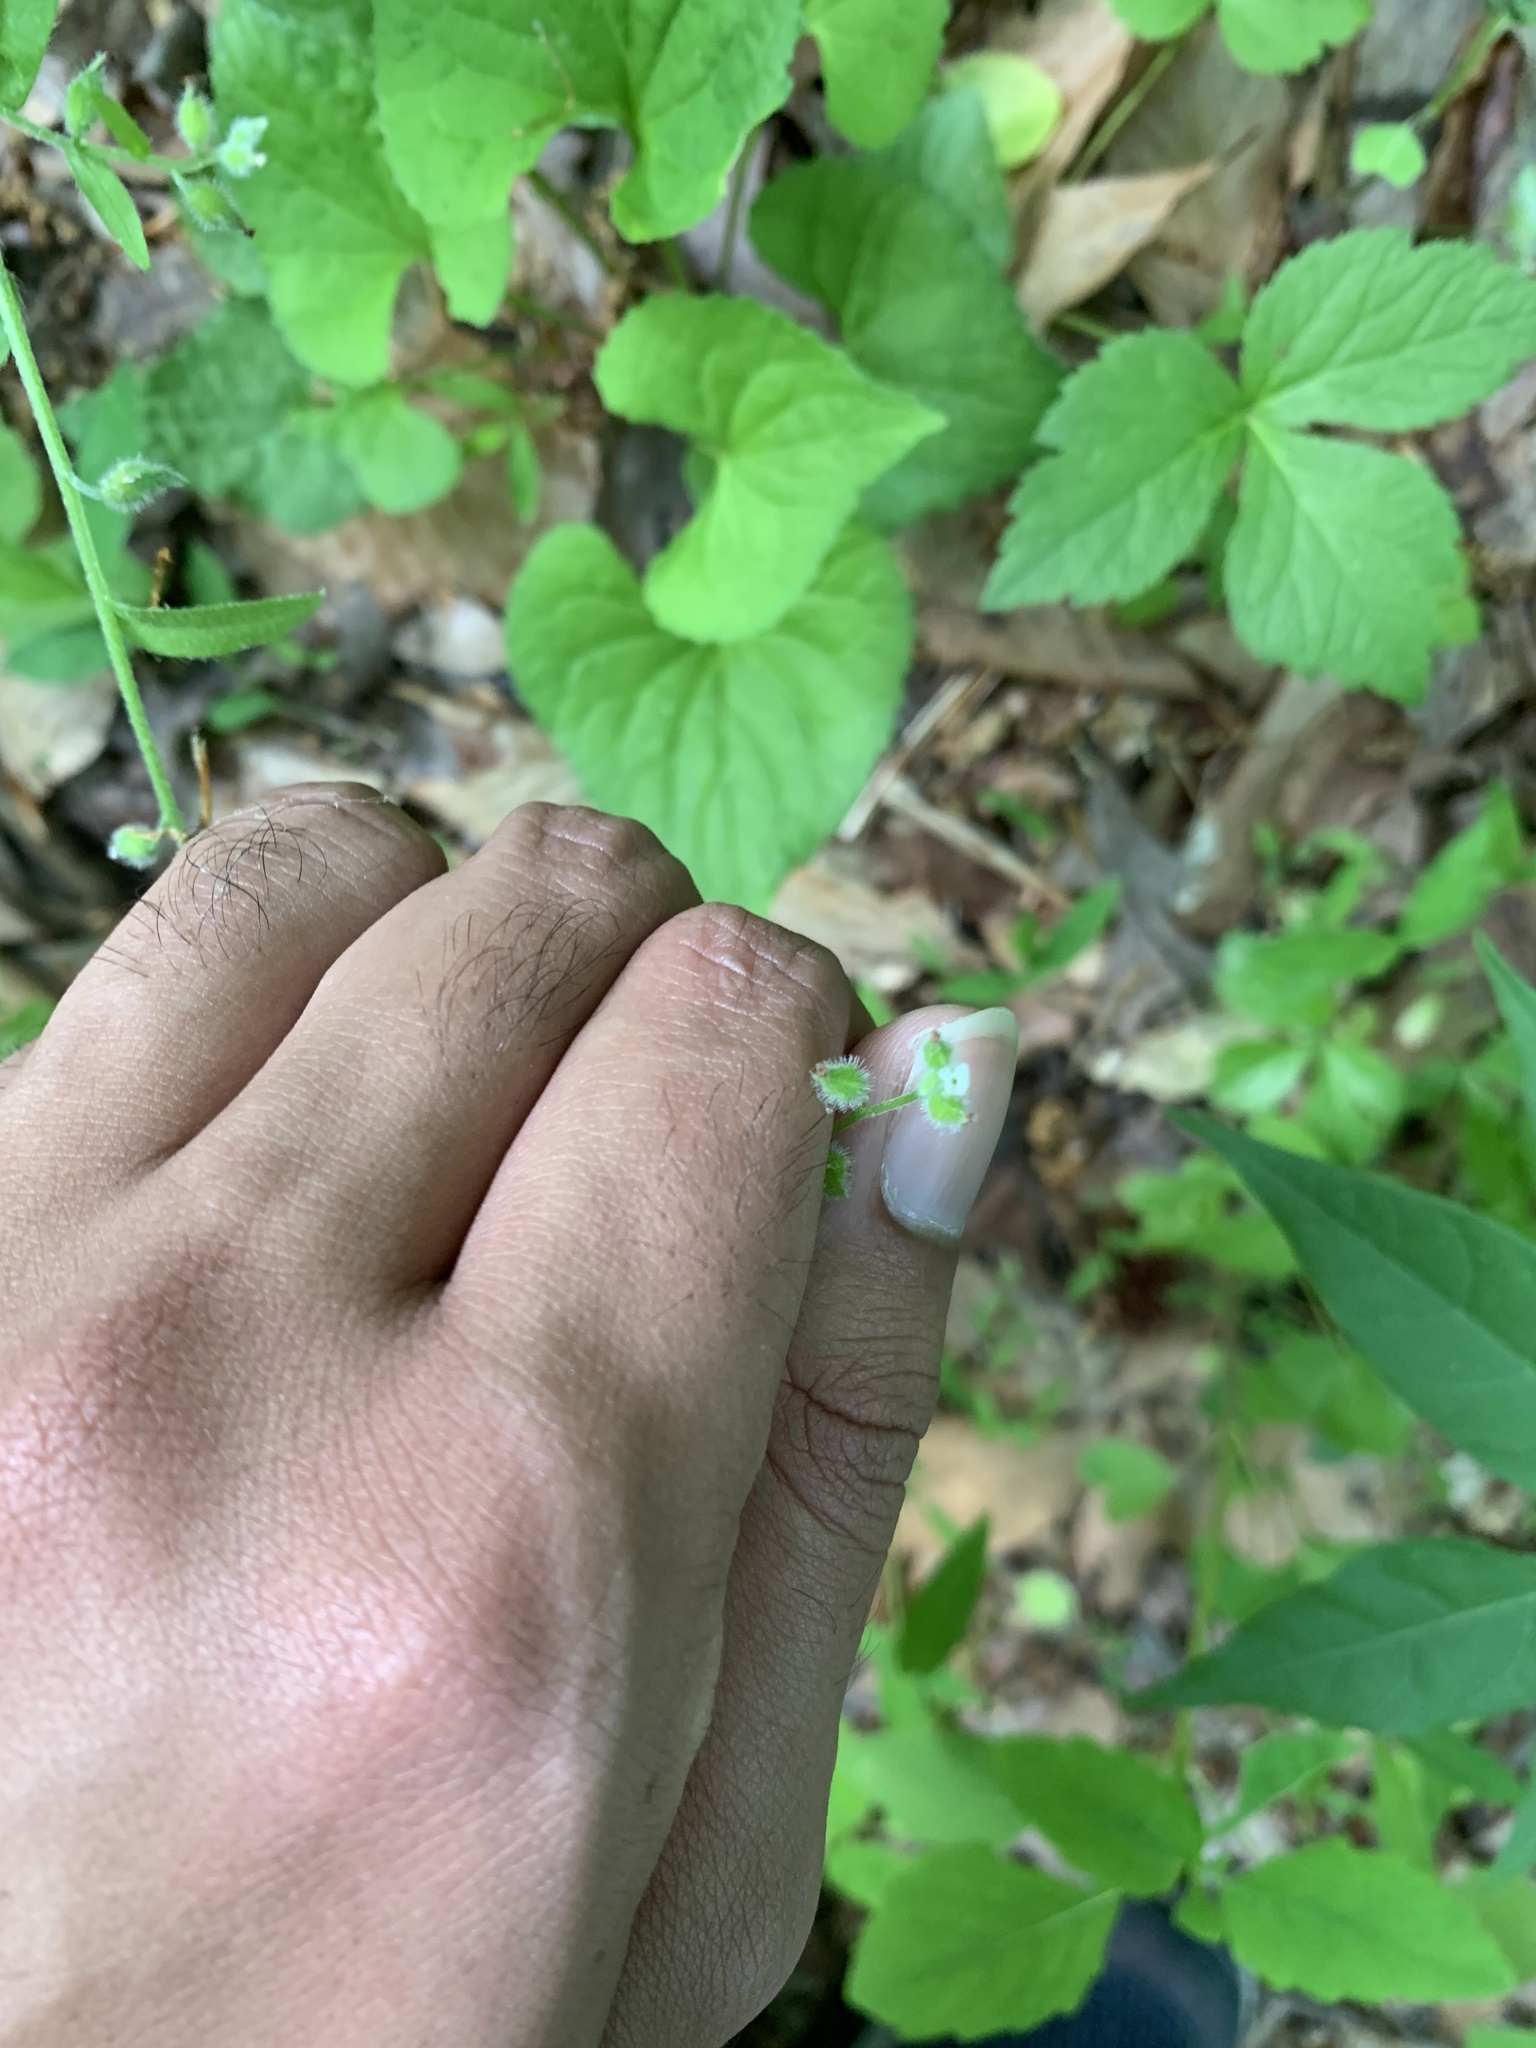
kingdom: Plantae
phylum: Tracheophyta
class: Magnoliopsida
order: Boraginales
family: Boraginaceae
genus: Myosotis
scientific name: Myosotis macrosperma
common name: Large-seed forget-me-not
